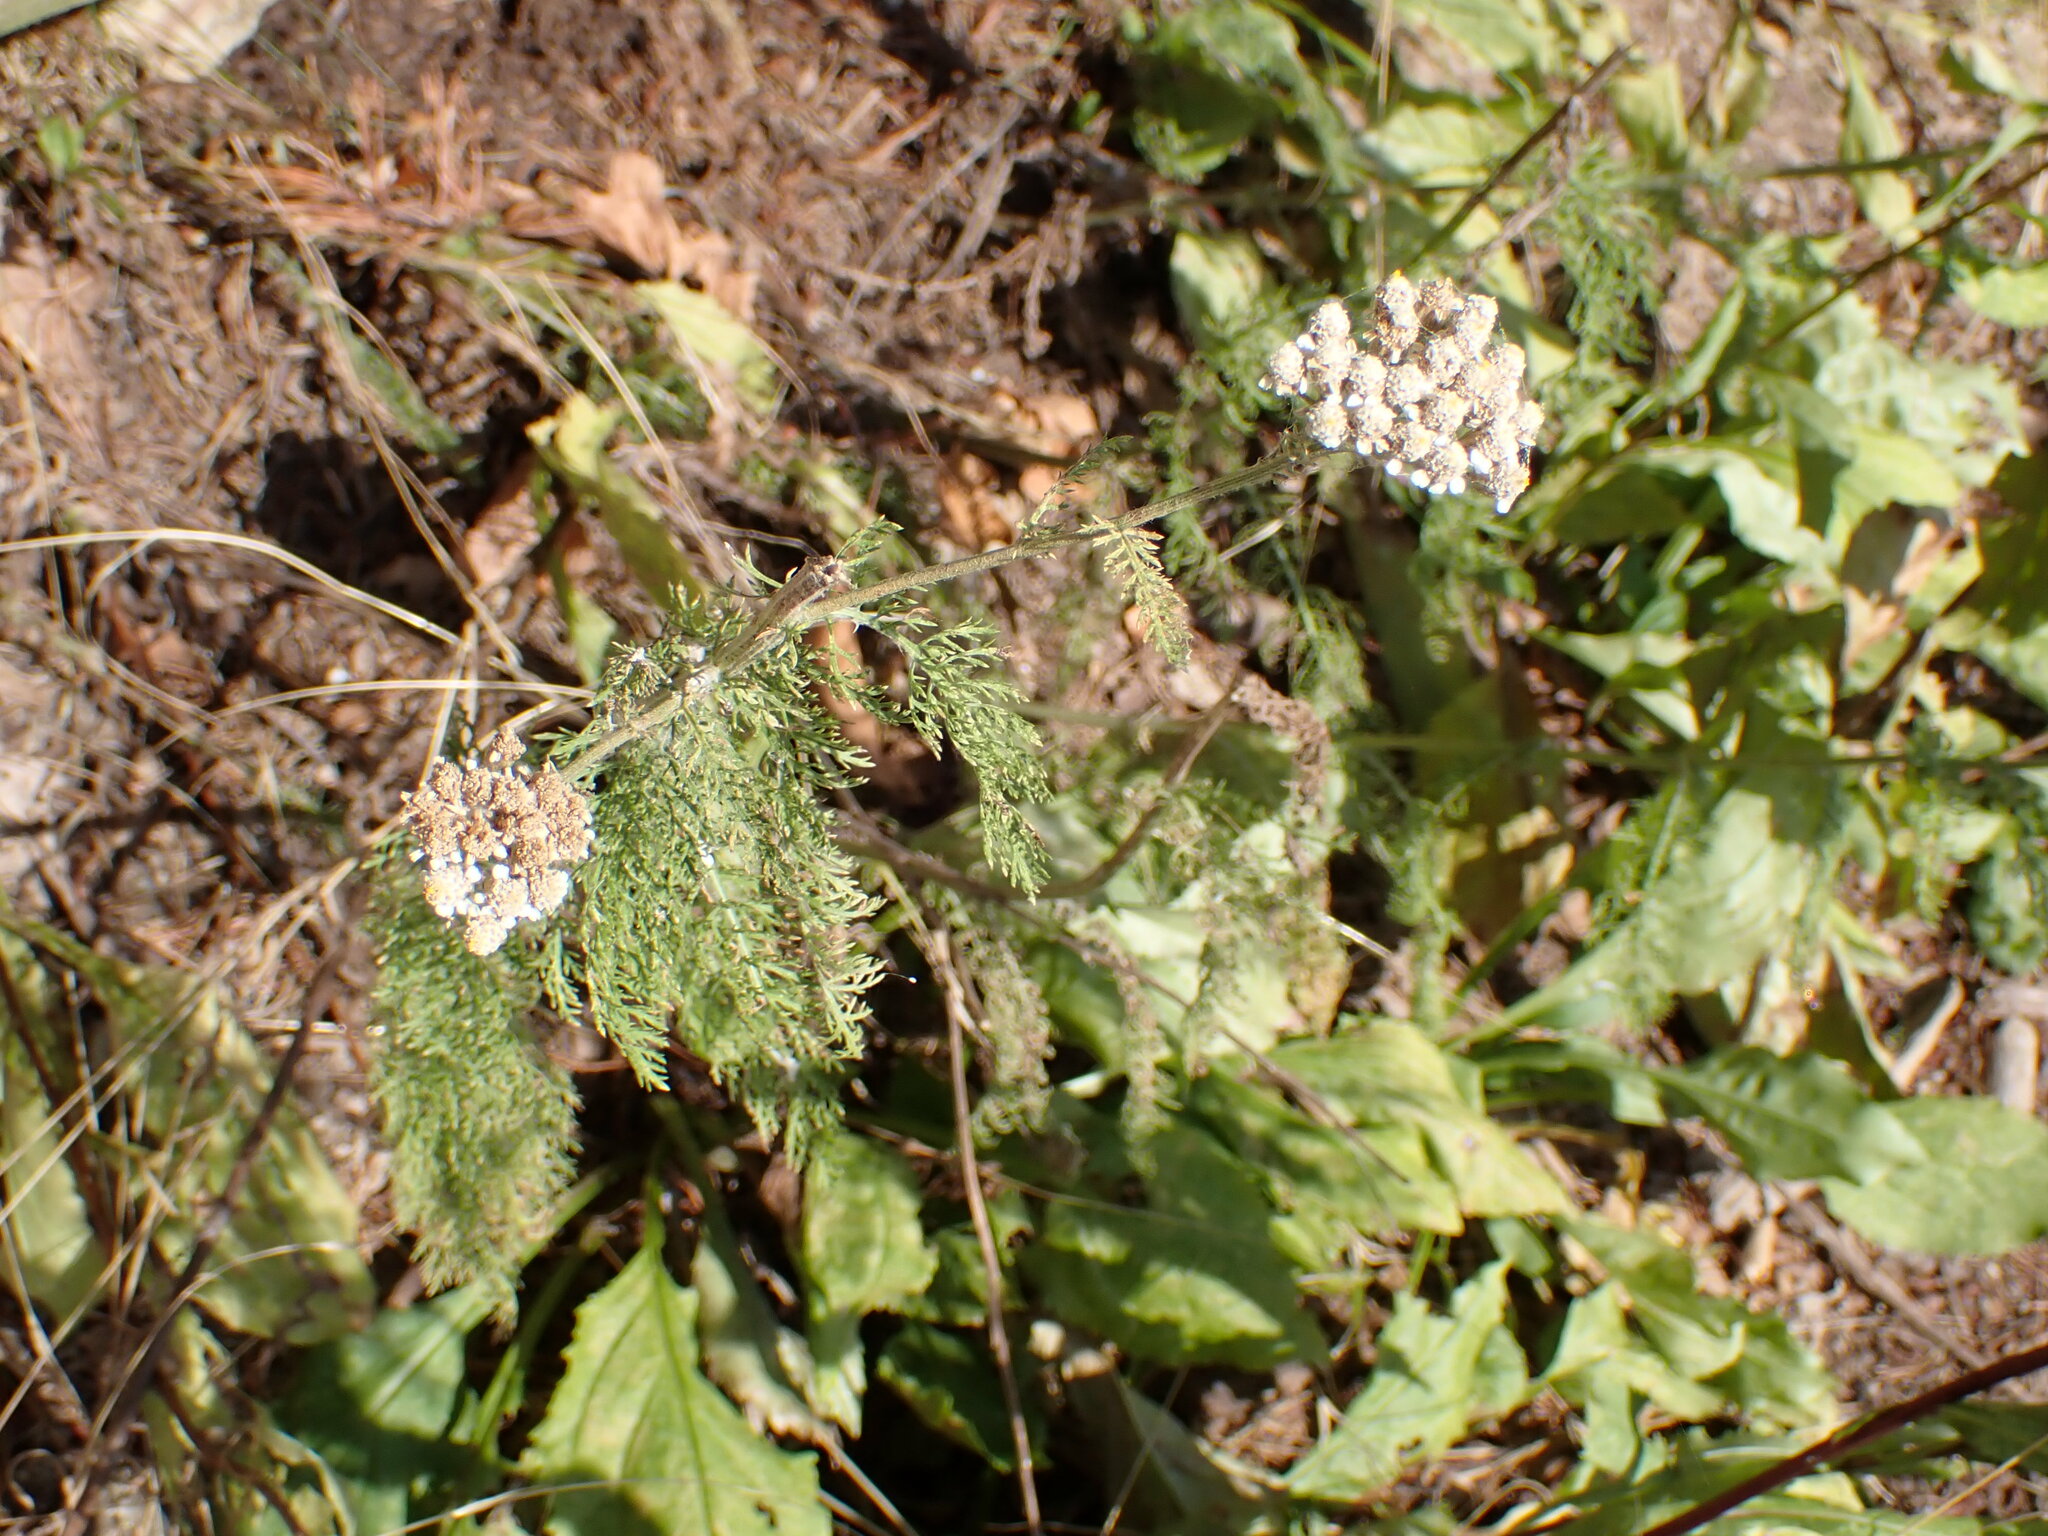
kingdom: Plantae
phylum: Tracheophyta
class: Magnoliopsida
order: Asterales
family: Asteraceae
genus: Achillea
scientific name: Achillea millefolium
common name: Yarrow
